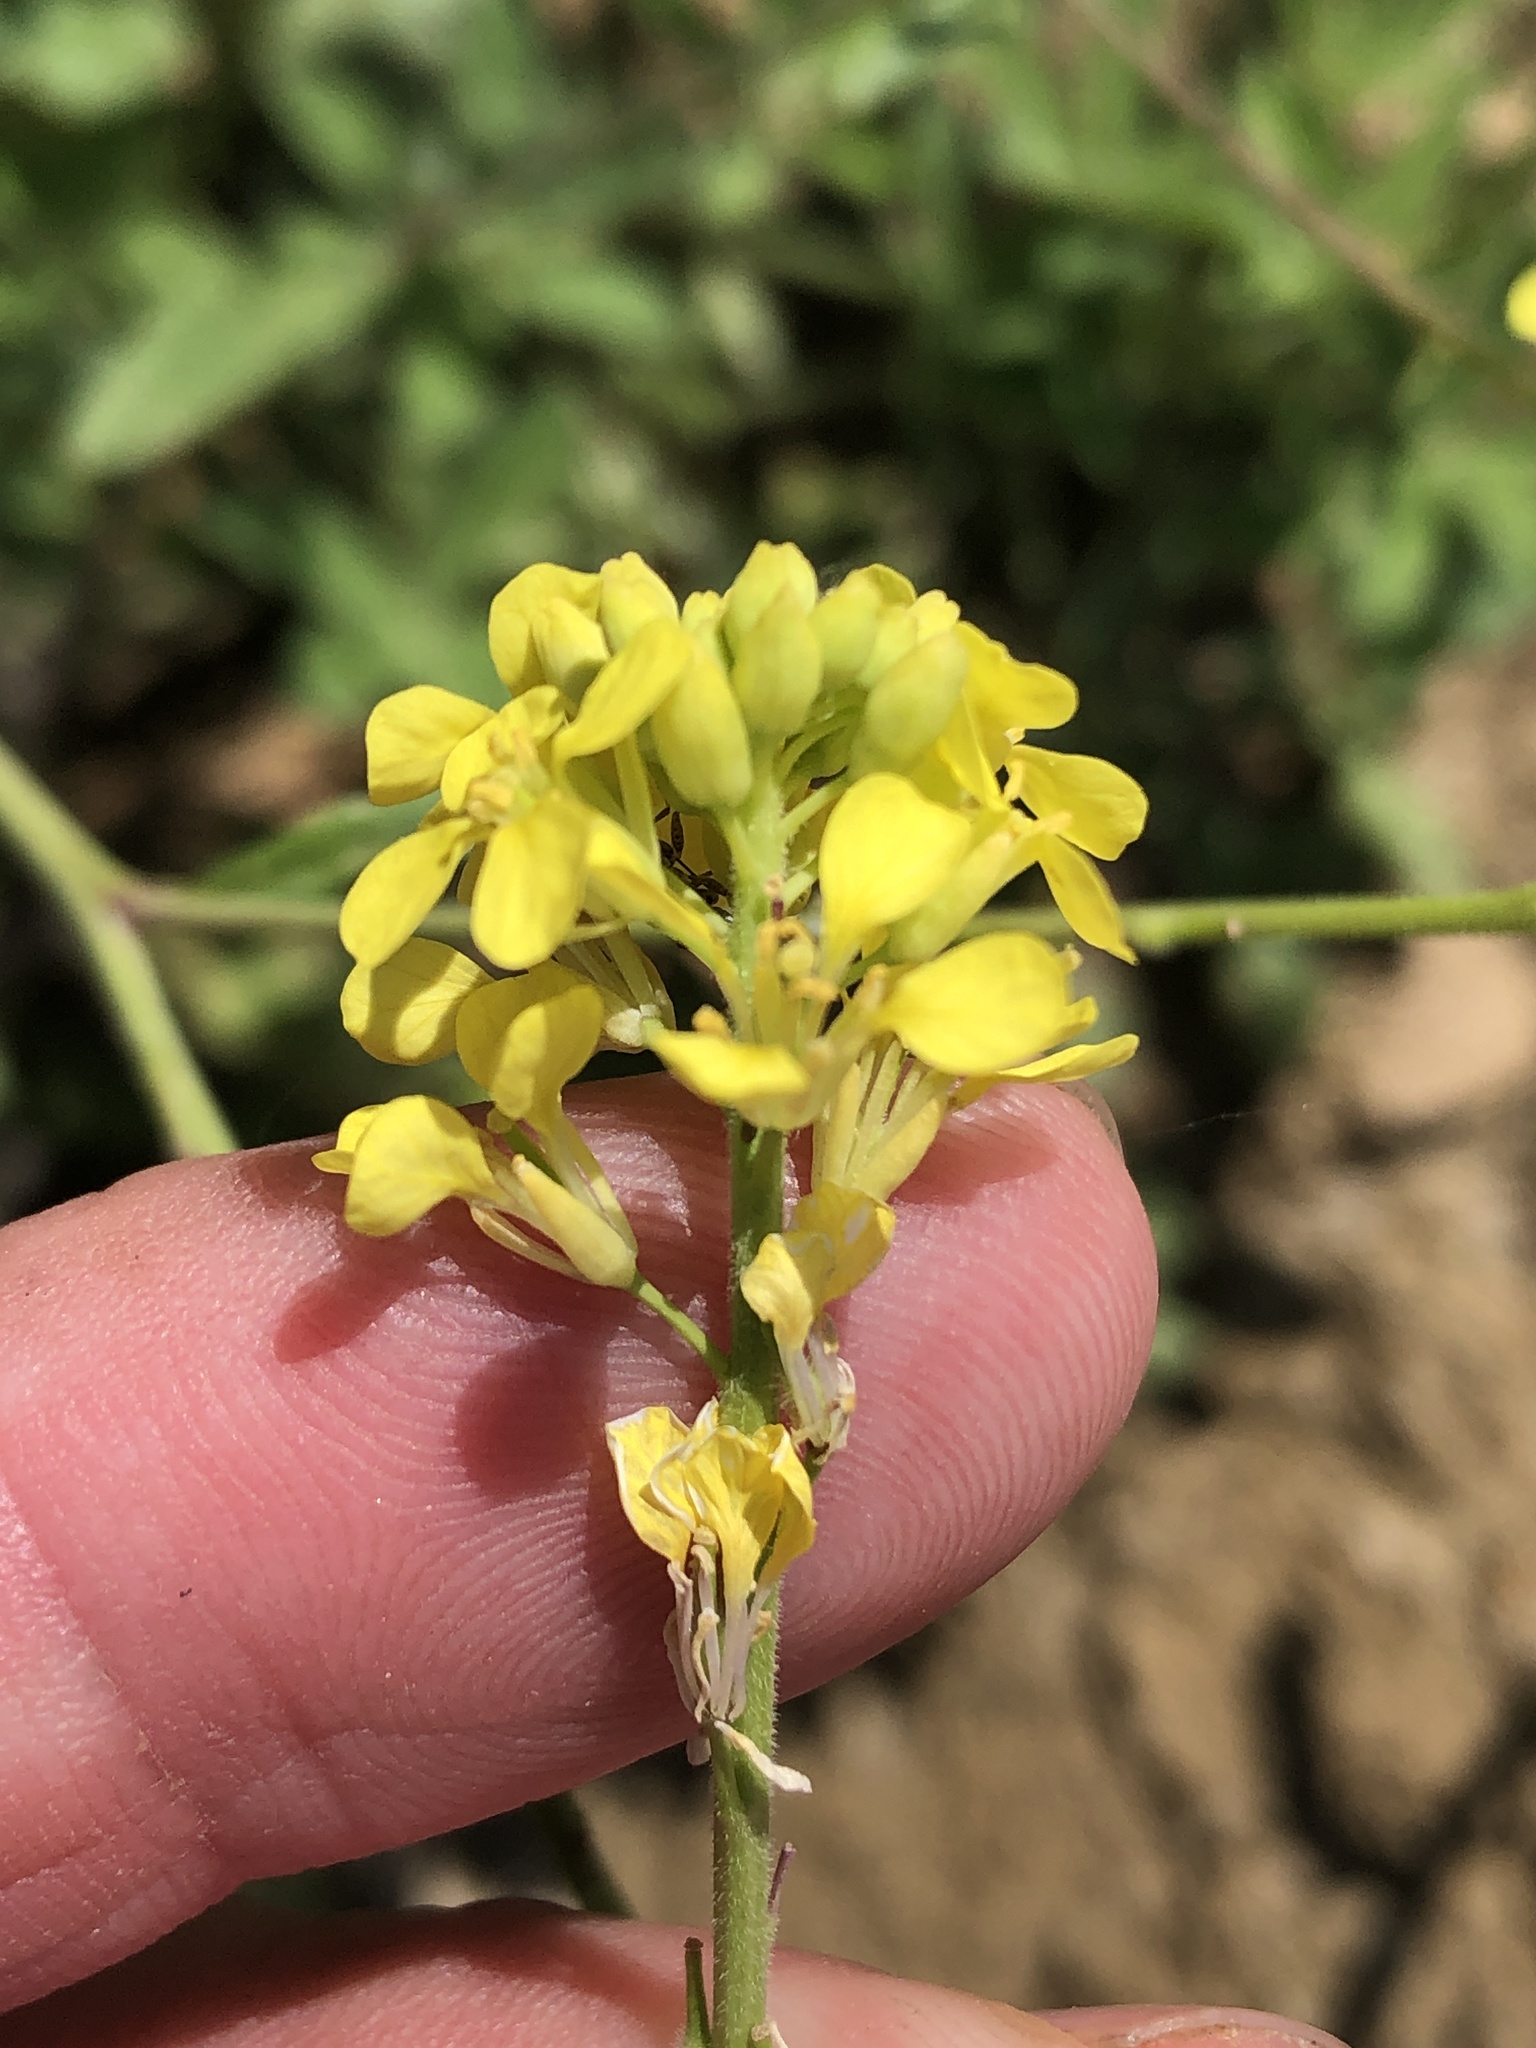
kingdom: Plantae
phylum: Tracheophyta
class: Magnoliopsida
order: Brassicales
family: Brassicaceae
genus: Rapistrum
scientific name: Rapistrum rugosum
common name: Annual bastardcabbage
